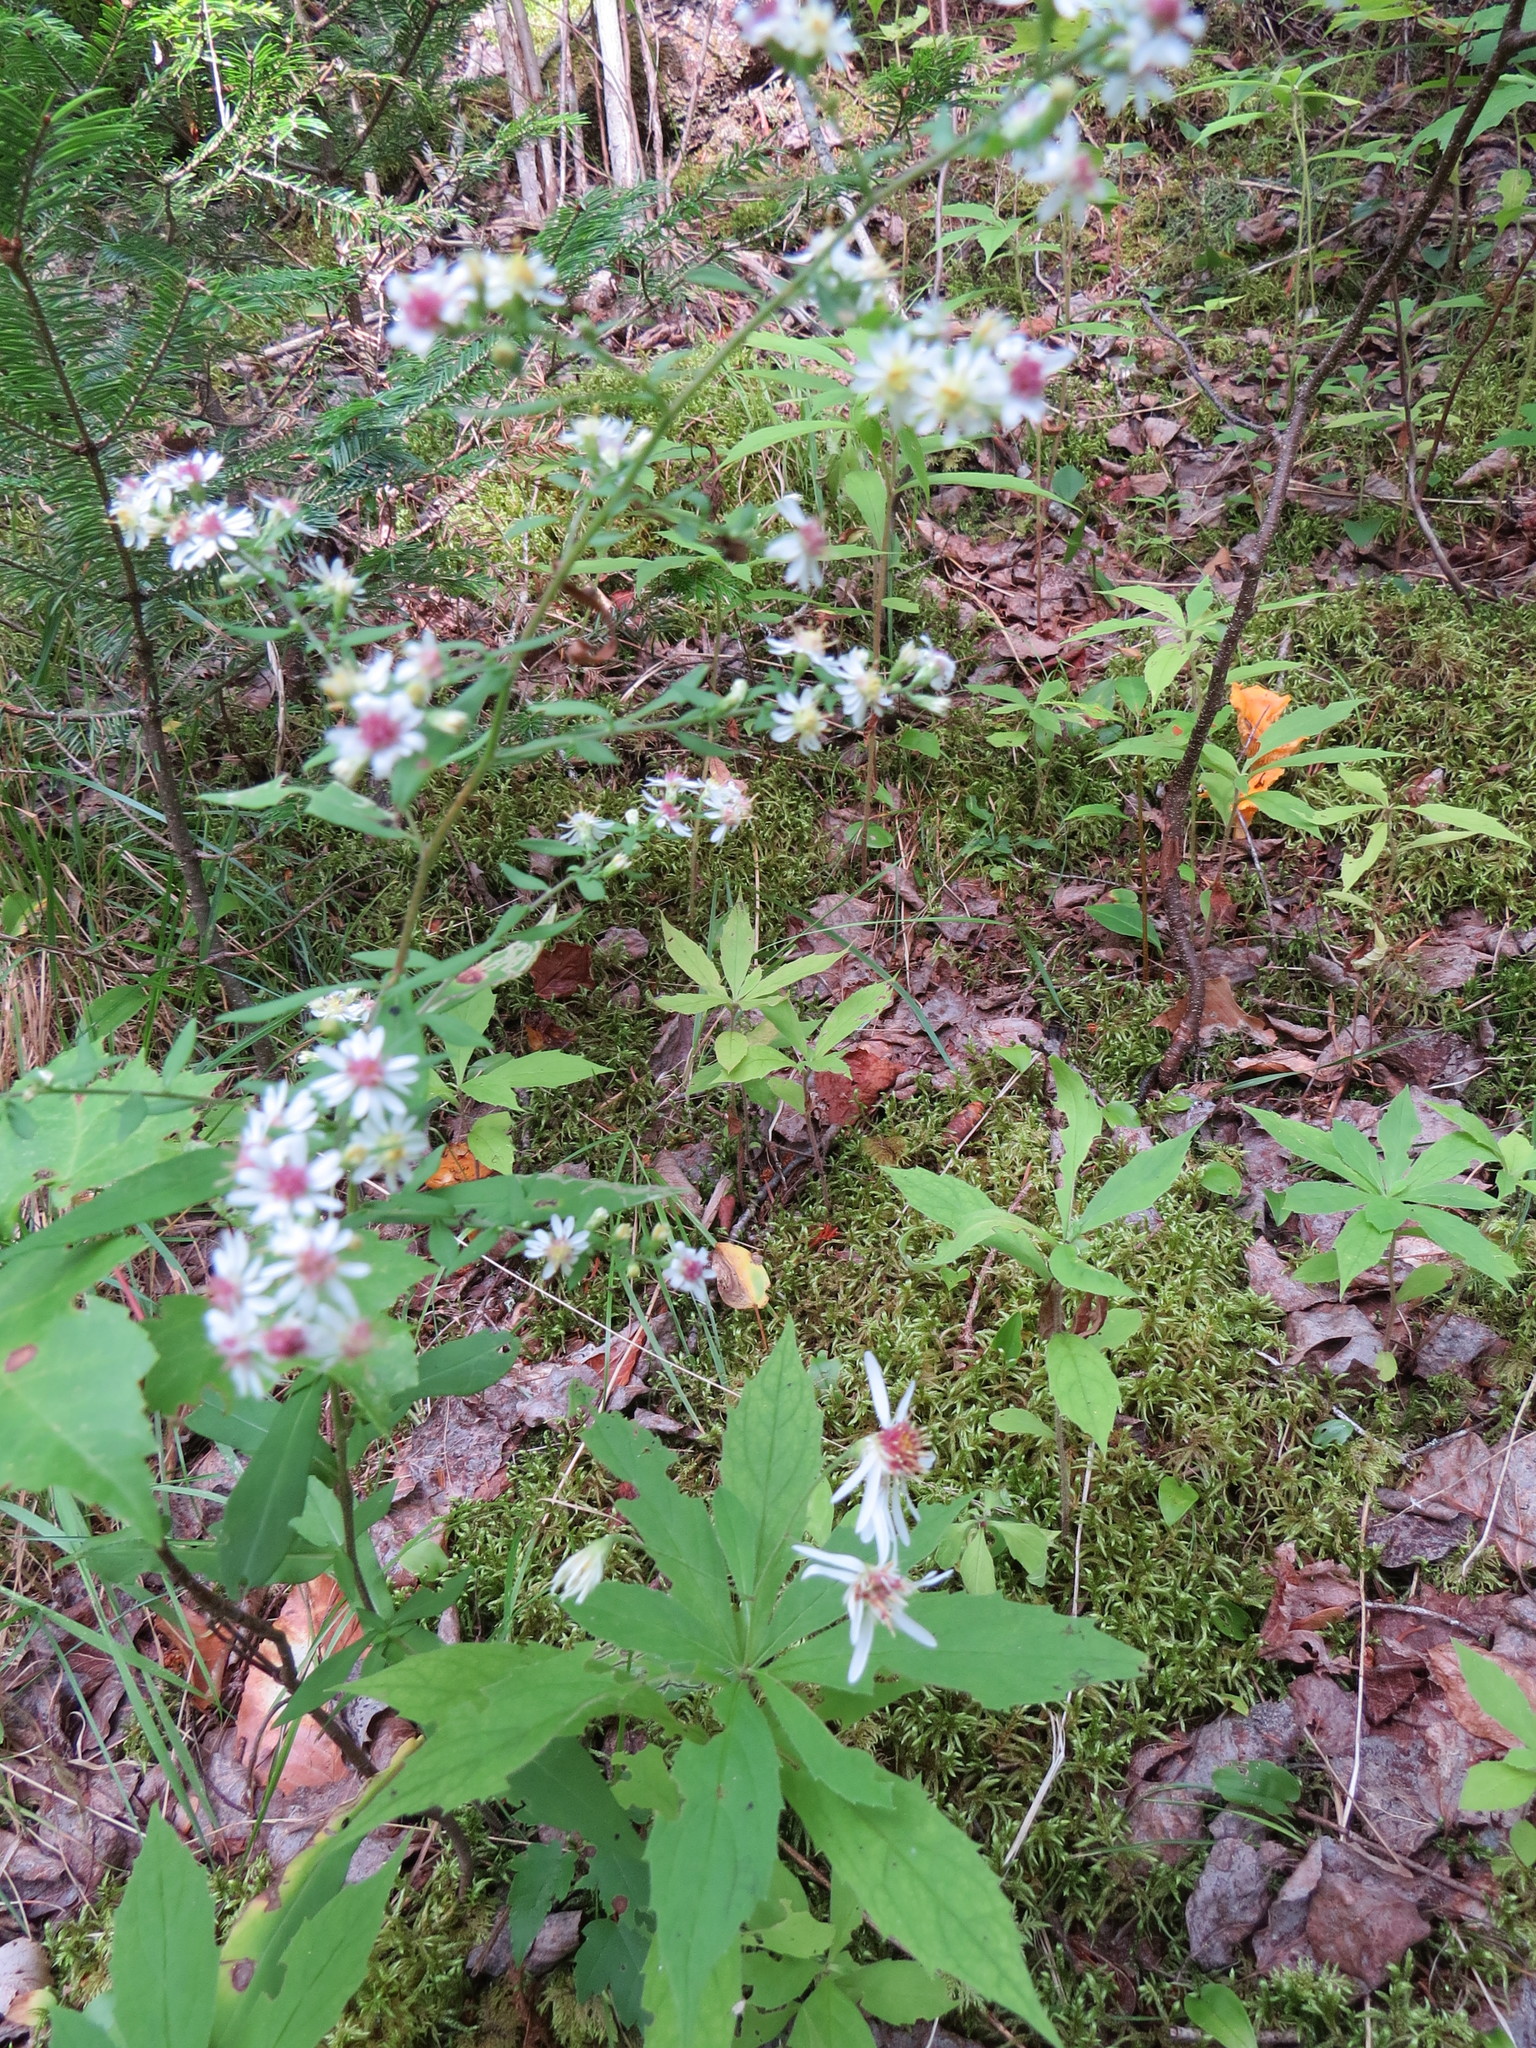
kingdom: Plantae
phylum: Tracheophyta
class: Magnoliopsida
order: Asterales
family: Asteraceae
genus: Symphyotrichum
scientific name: Symphyotrichum lateriflorum
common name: Calico aster
